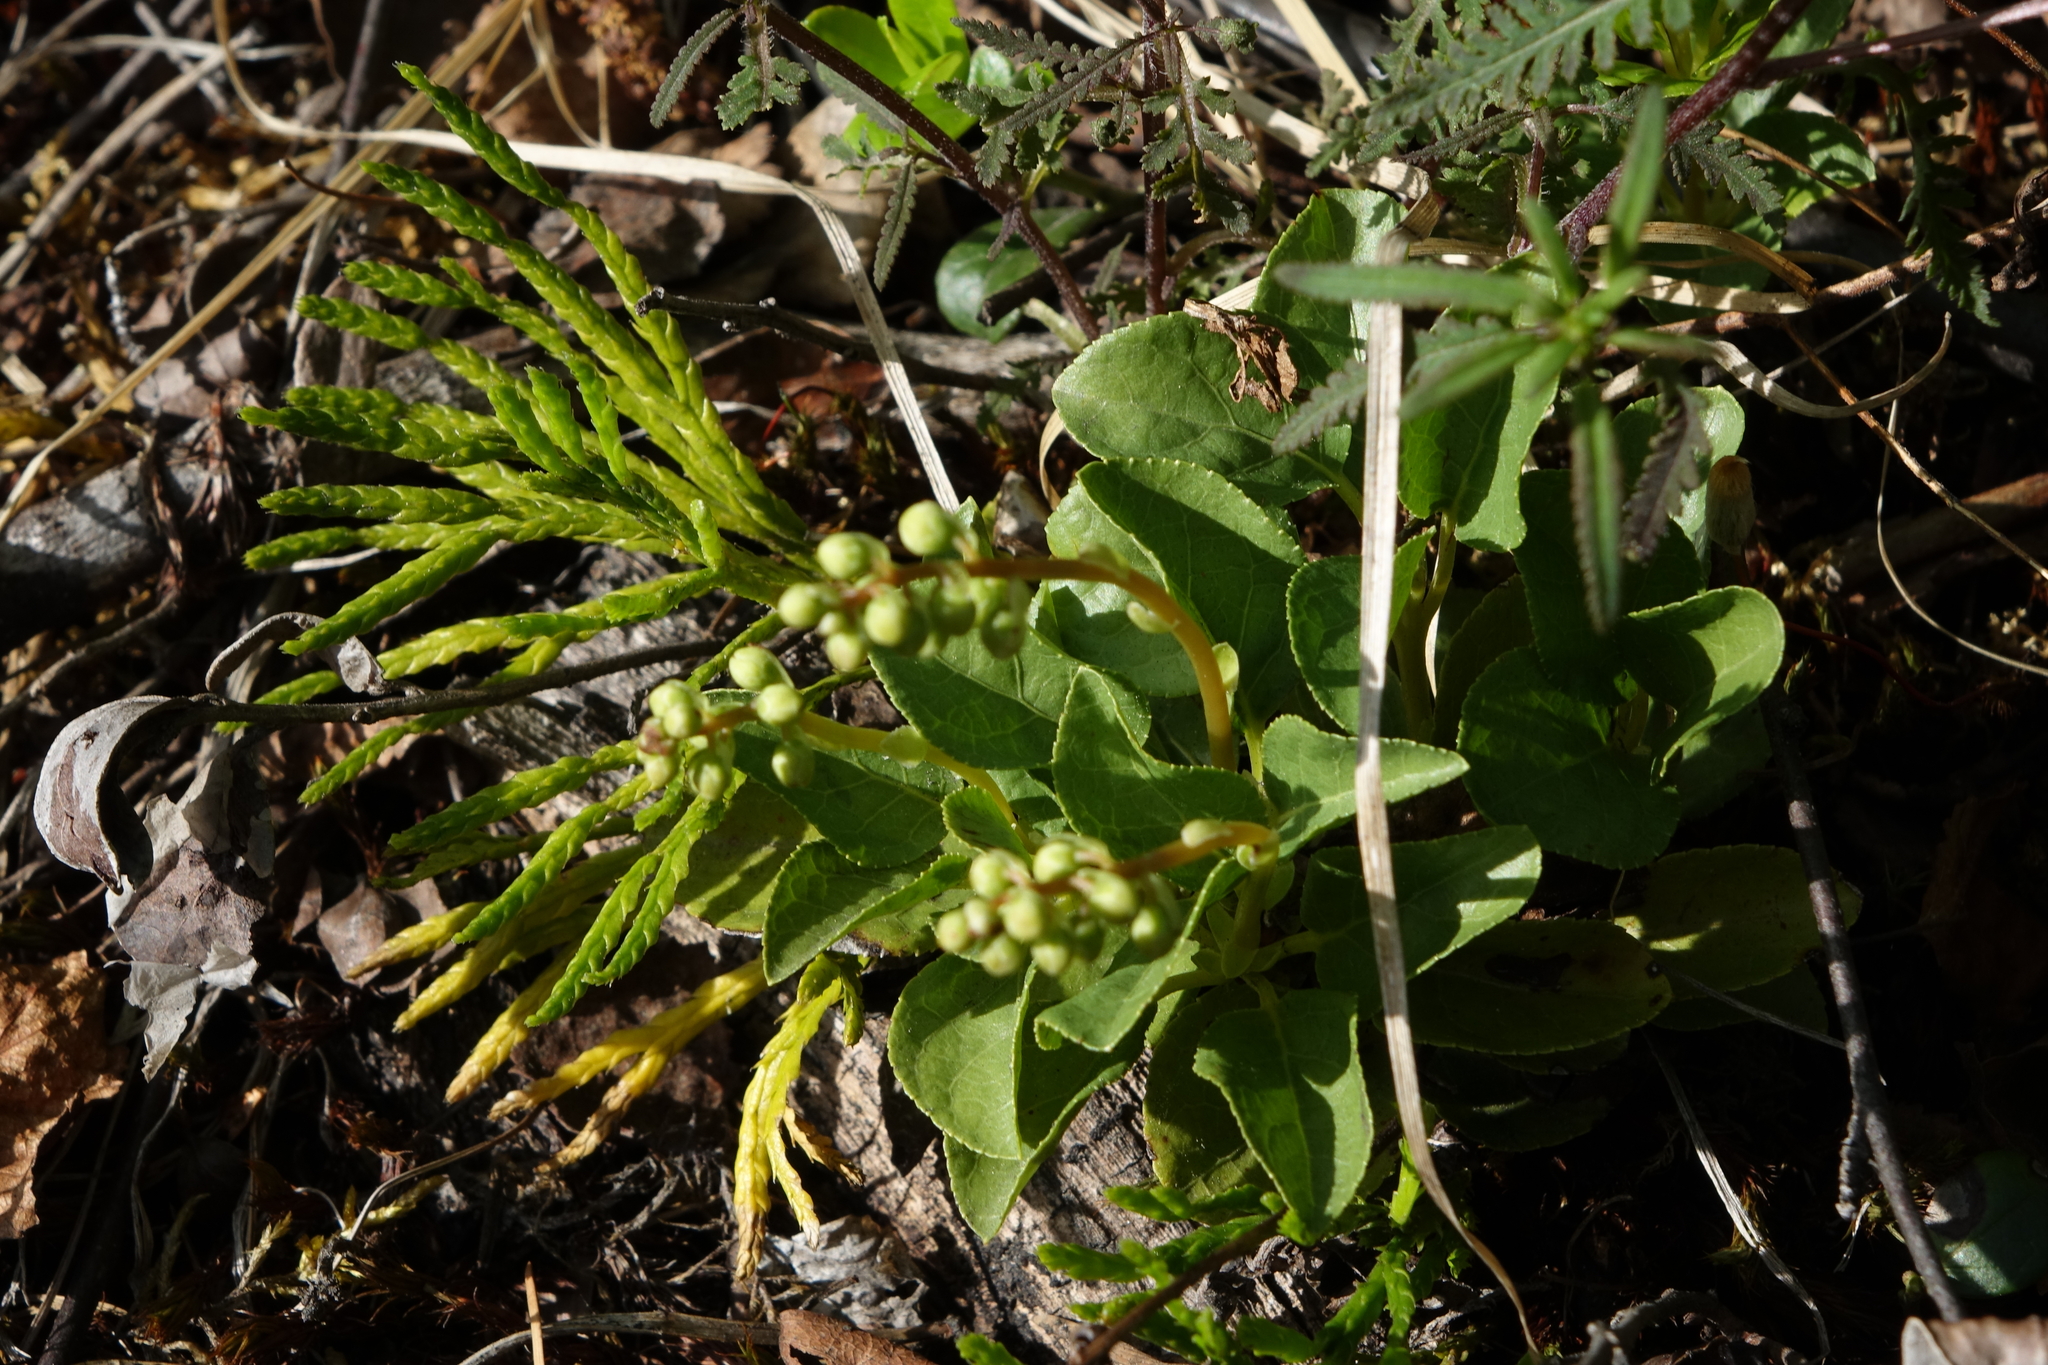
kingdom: Plantae
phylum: Tracheophyta
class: Magnoliopsida
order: Ericales
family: Ericaceae
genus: Orthilia
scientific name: Orthilia secunda
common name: One-sided orthilia
